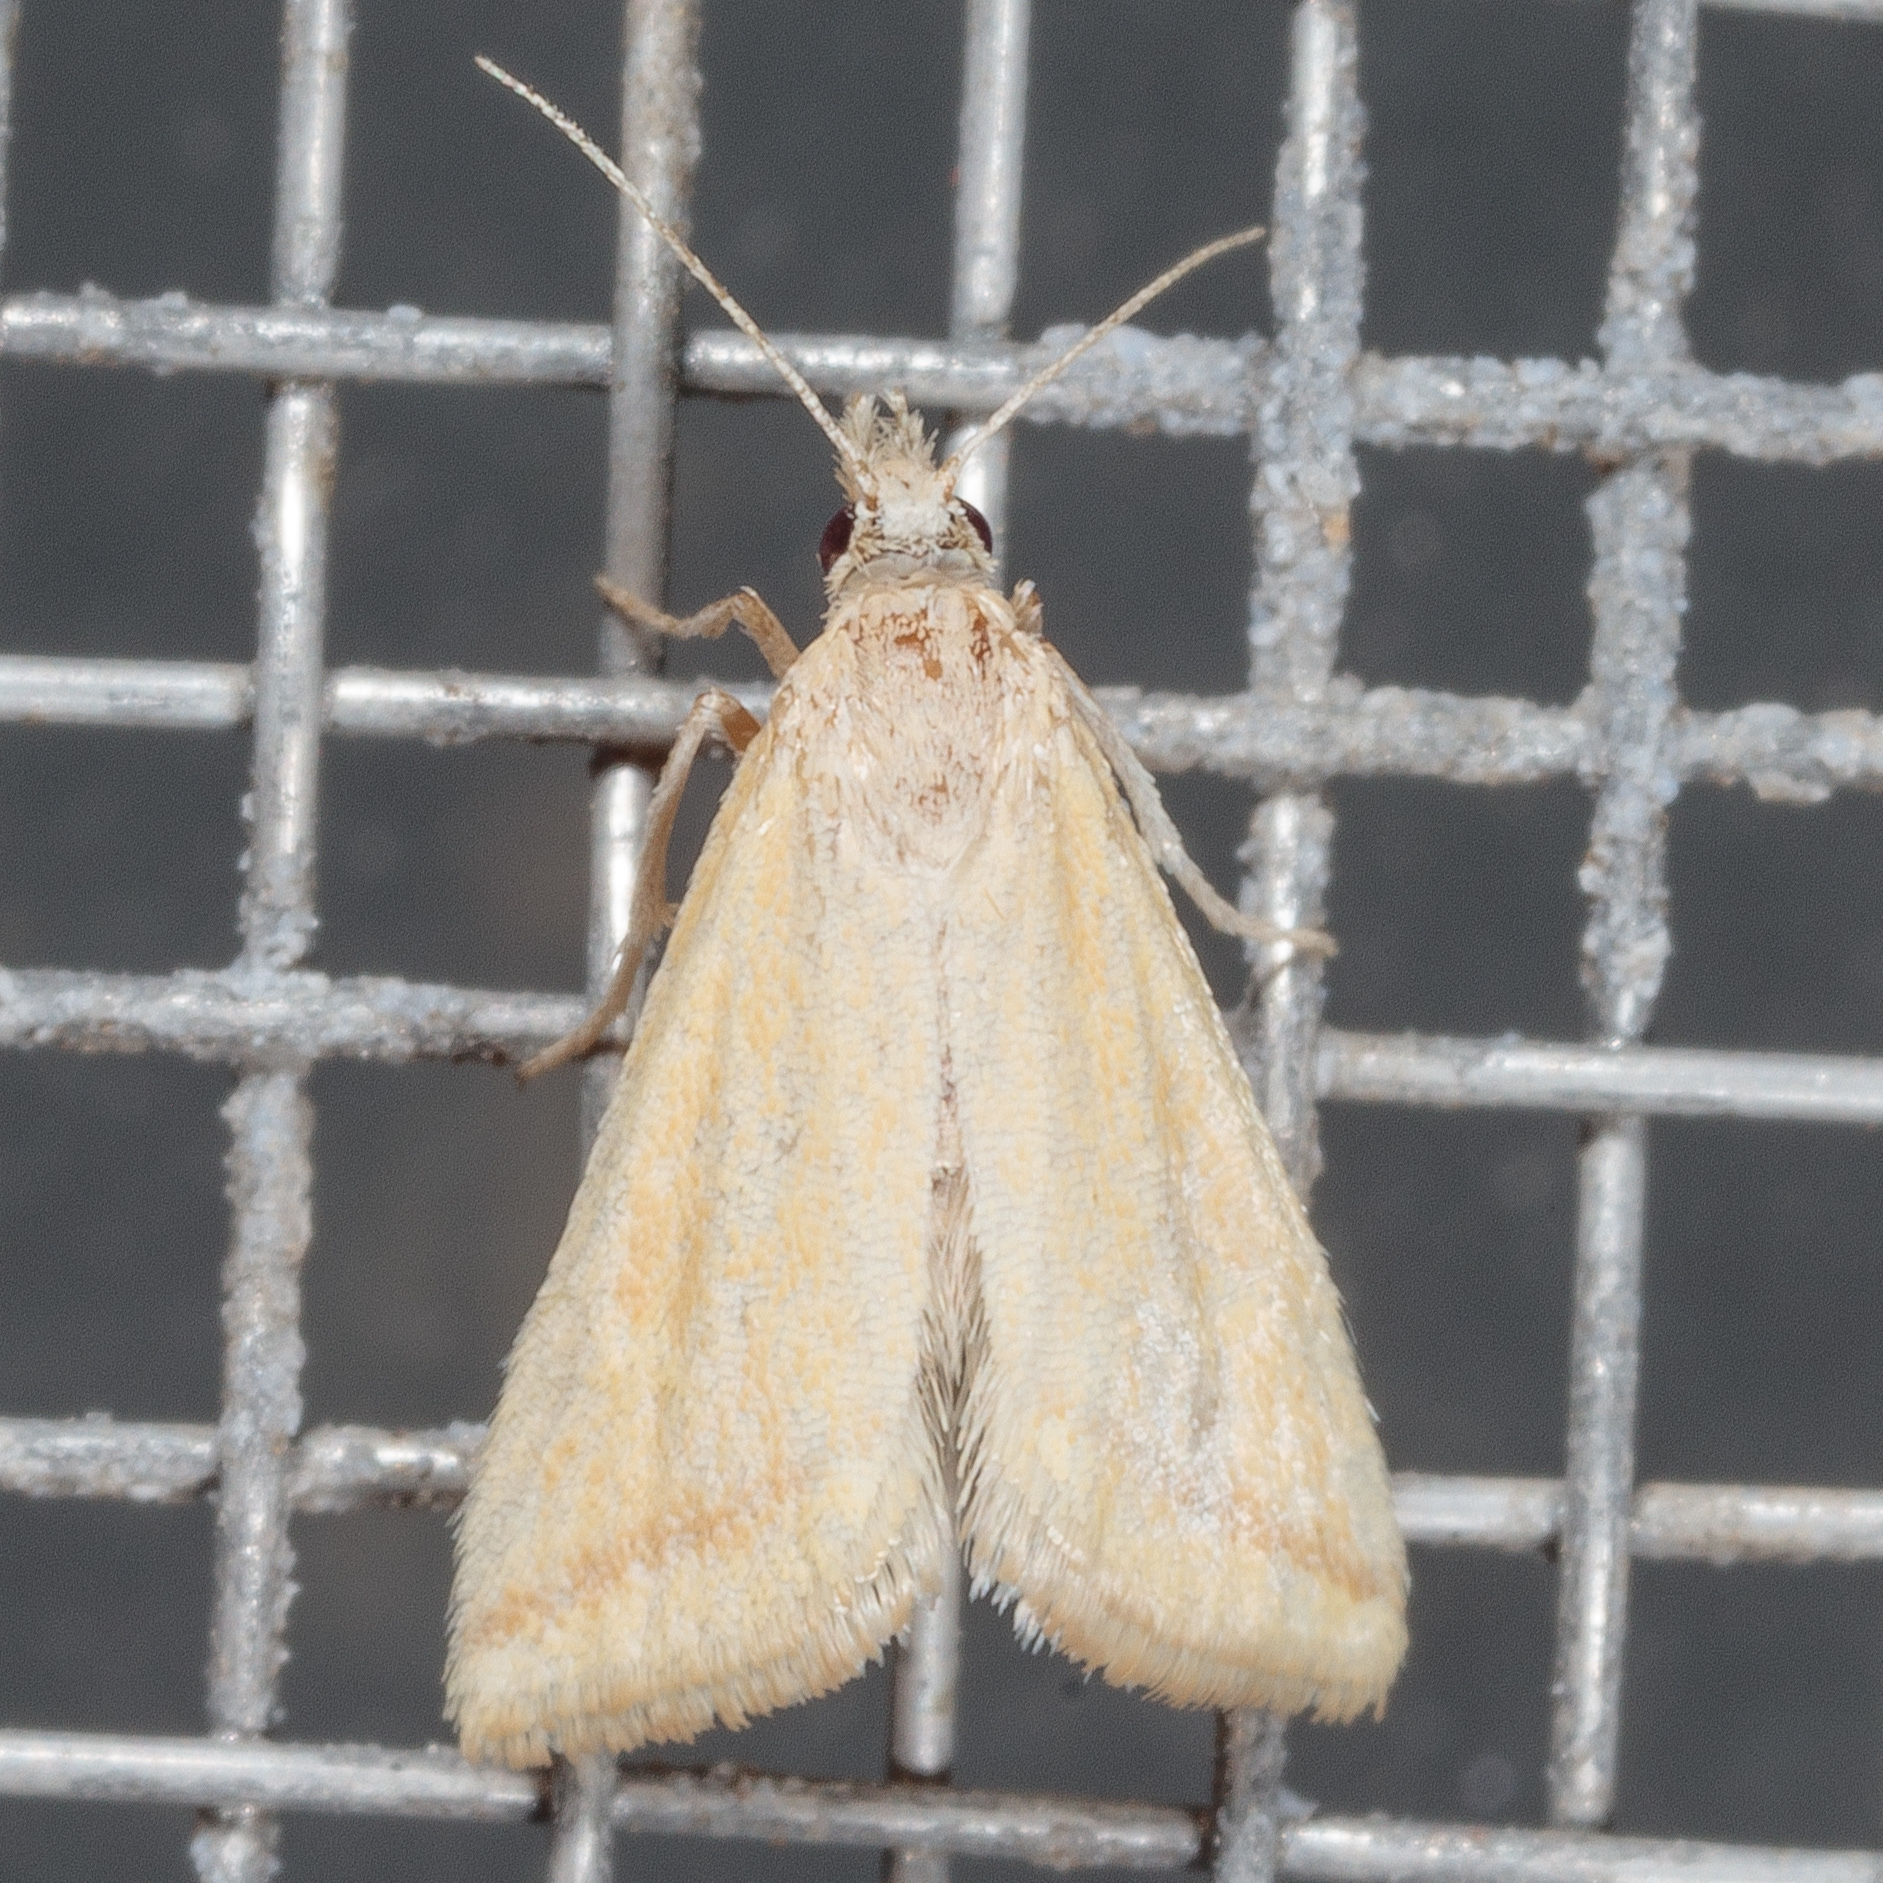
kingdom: Animalia
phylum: Arthropoda
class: Insecta
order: Lepidoptera
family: Crambidae
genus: Microtheoris
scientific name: Microtheoris vibicalis
